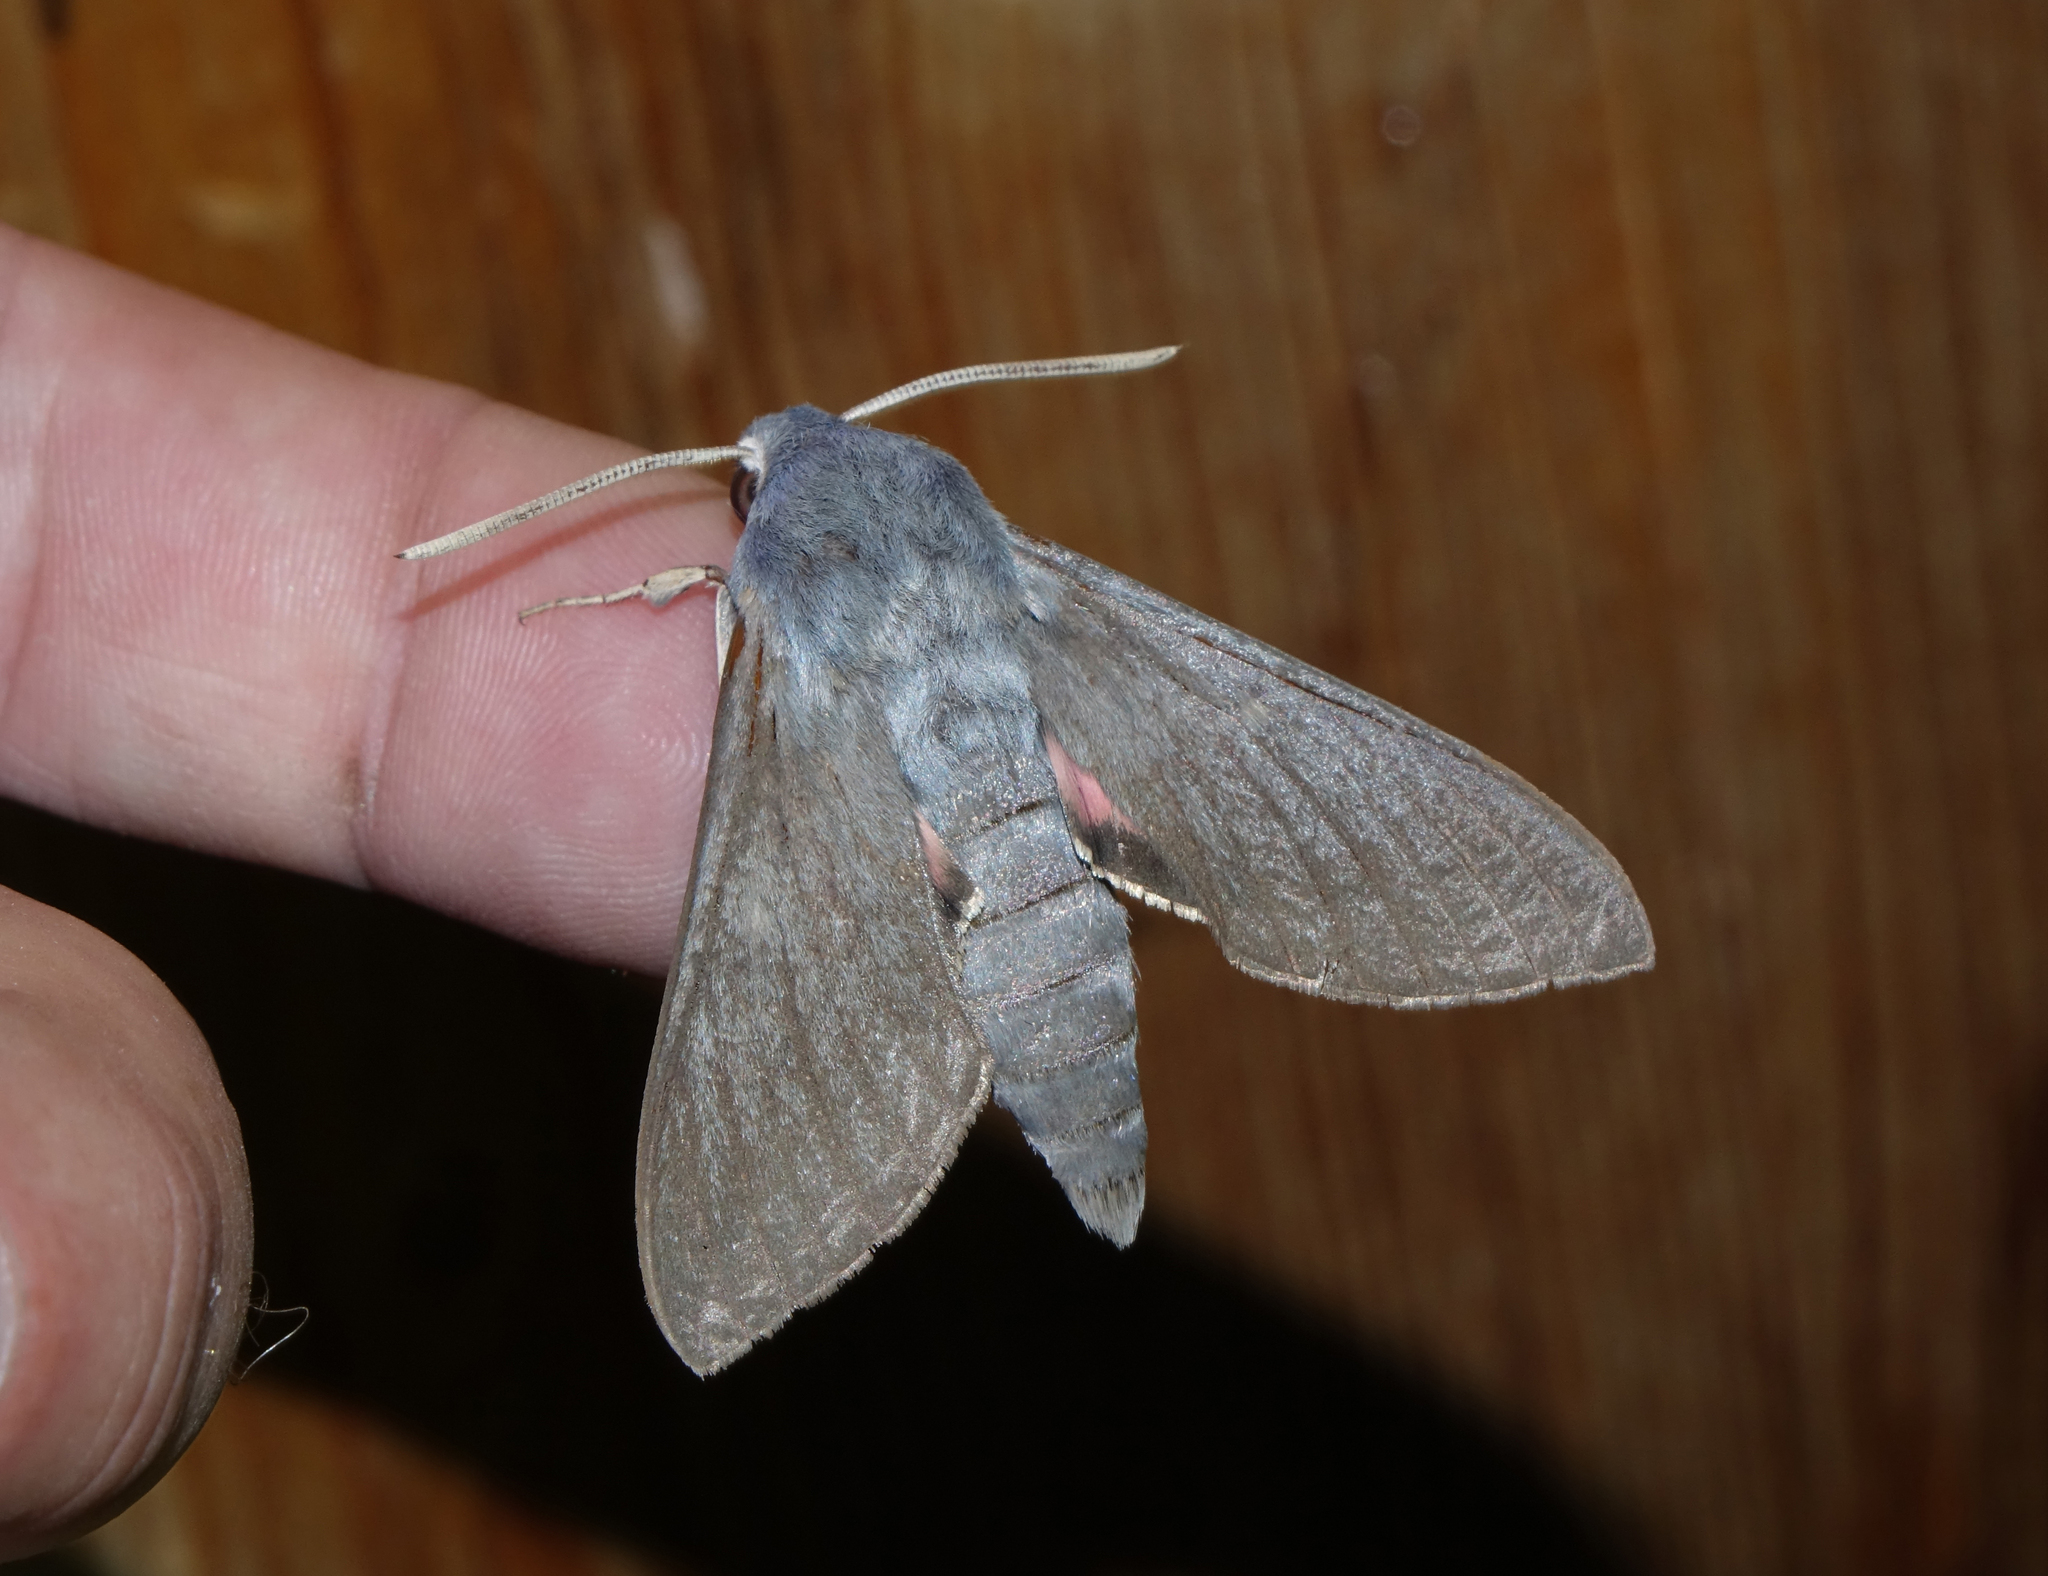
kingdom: Animalia
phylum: Arthropoda
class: Insecta
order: Lepidoptera
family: Sphingidae
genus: Hyles
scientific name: Hyles vespertilio
